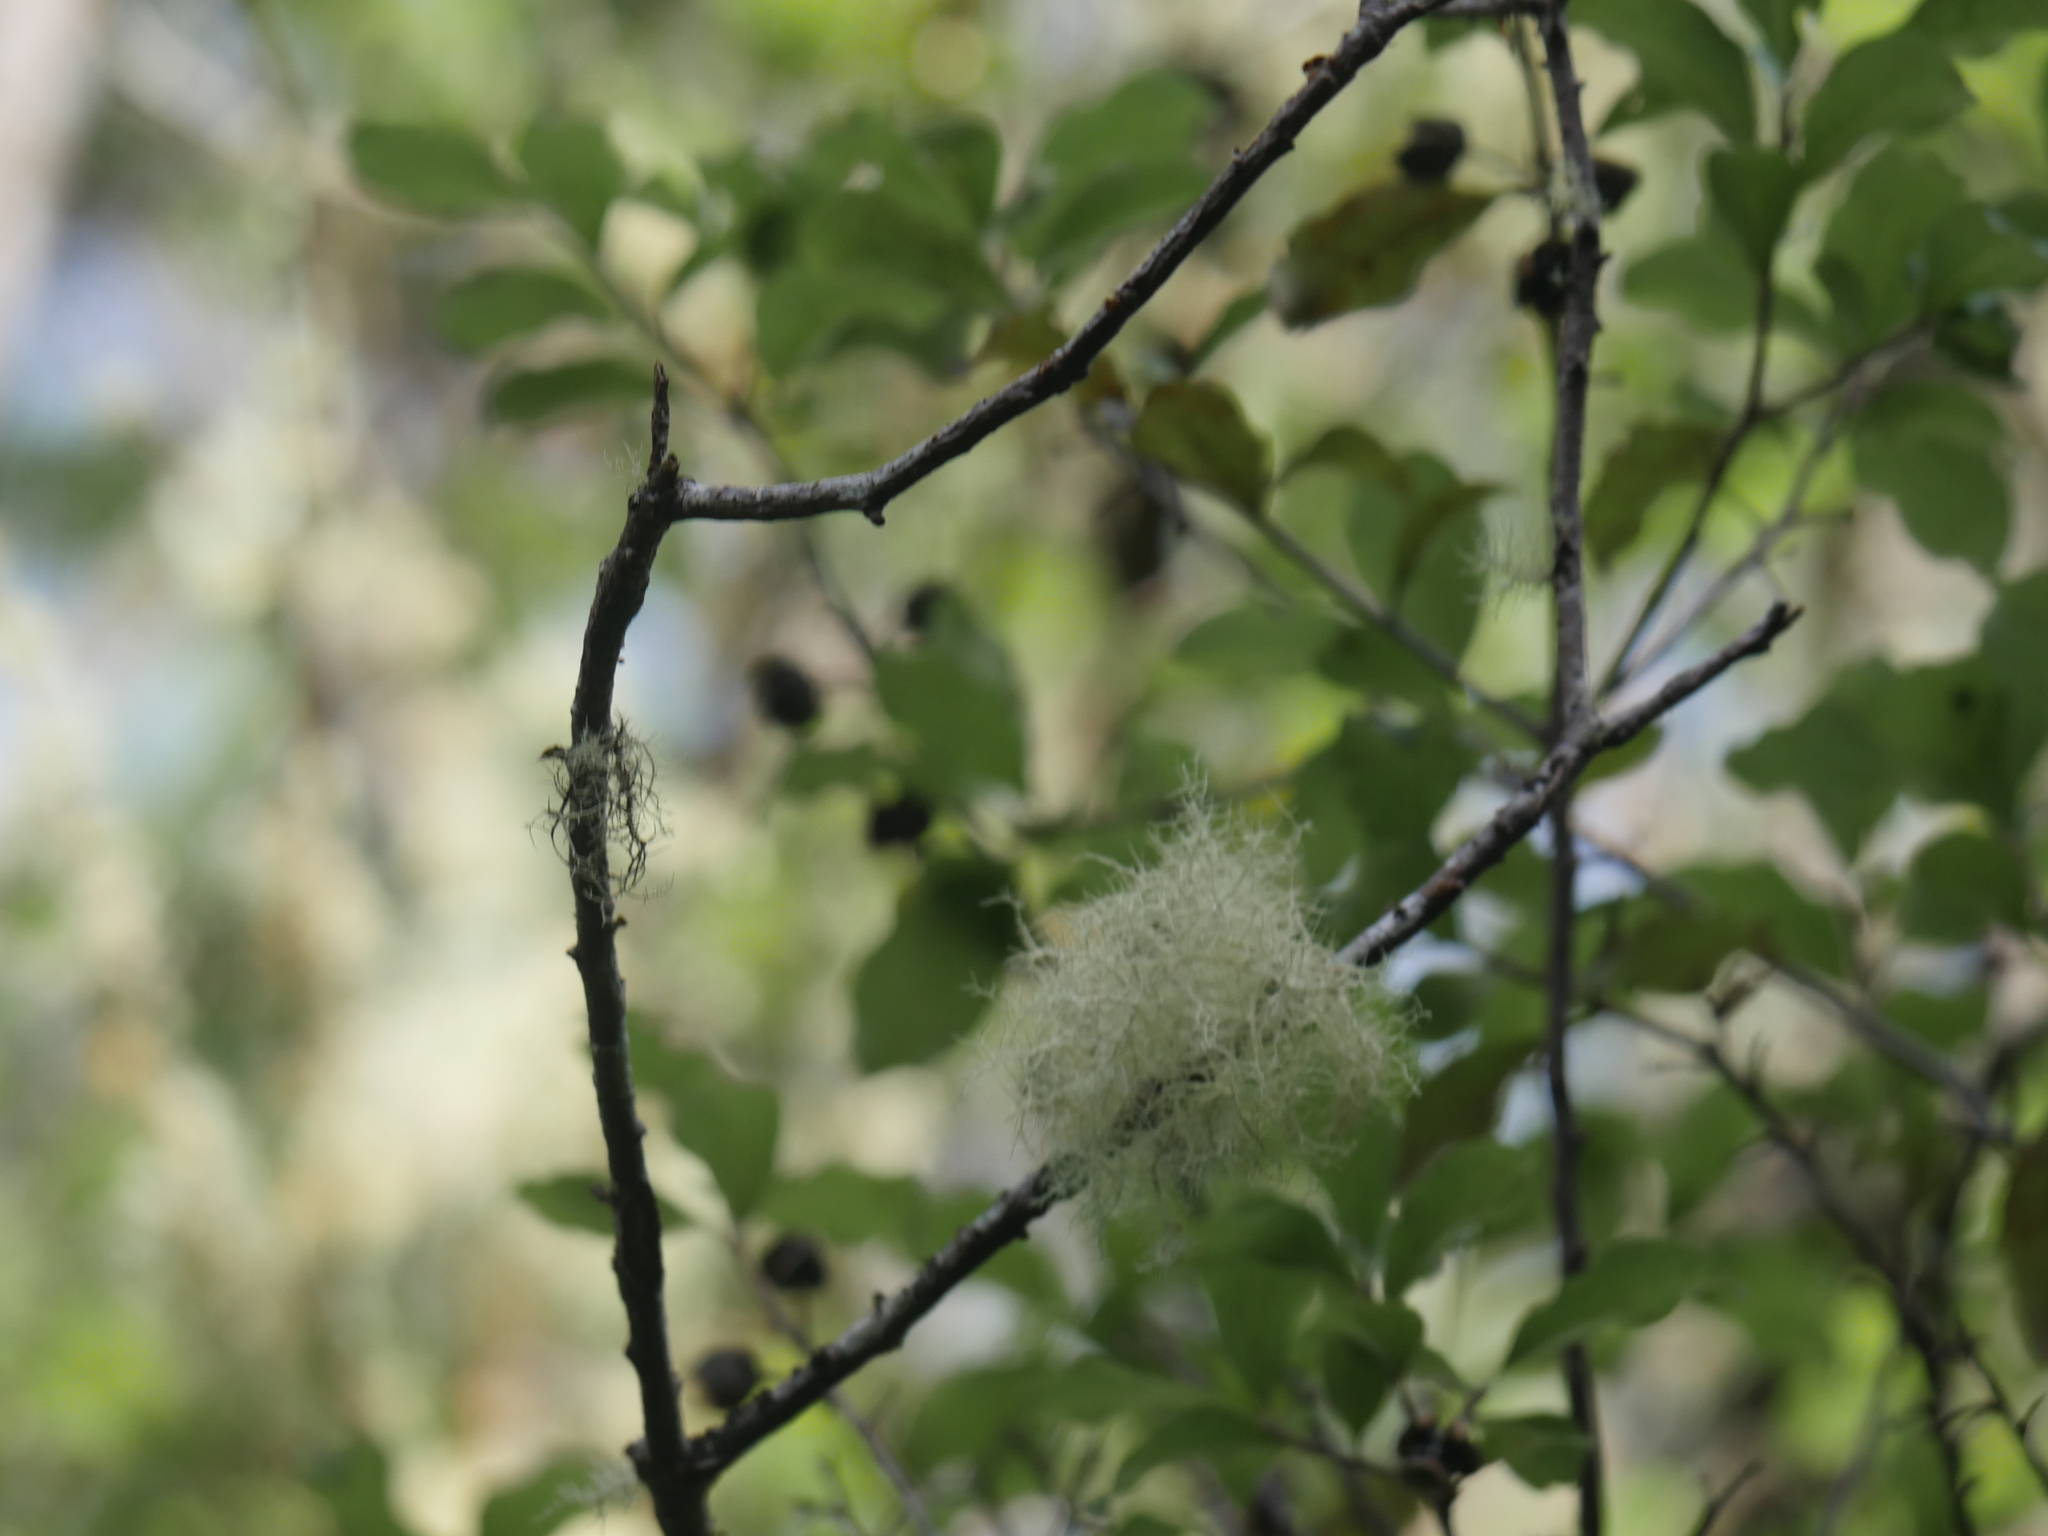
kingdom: Plantae
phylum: Tracheophyta
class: Magnoliopsida
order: Apiales
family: Pittosporaceae
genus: Pittosporum
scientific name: Pittosporum tenuifolium
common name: Kohuhu
